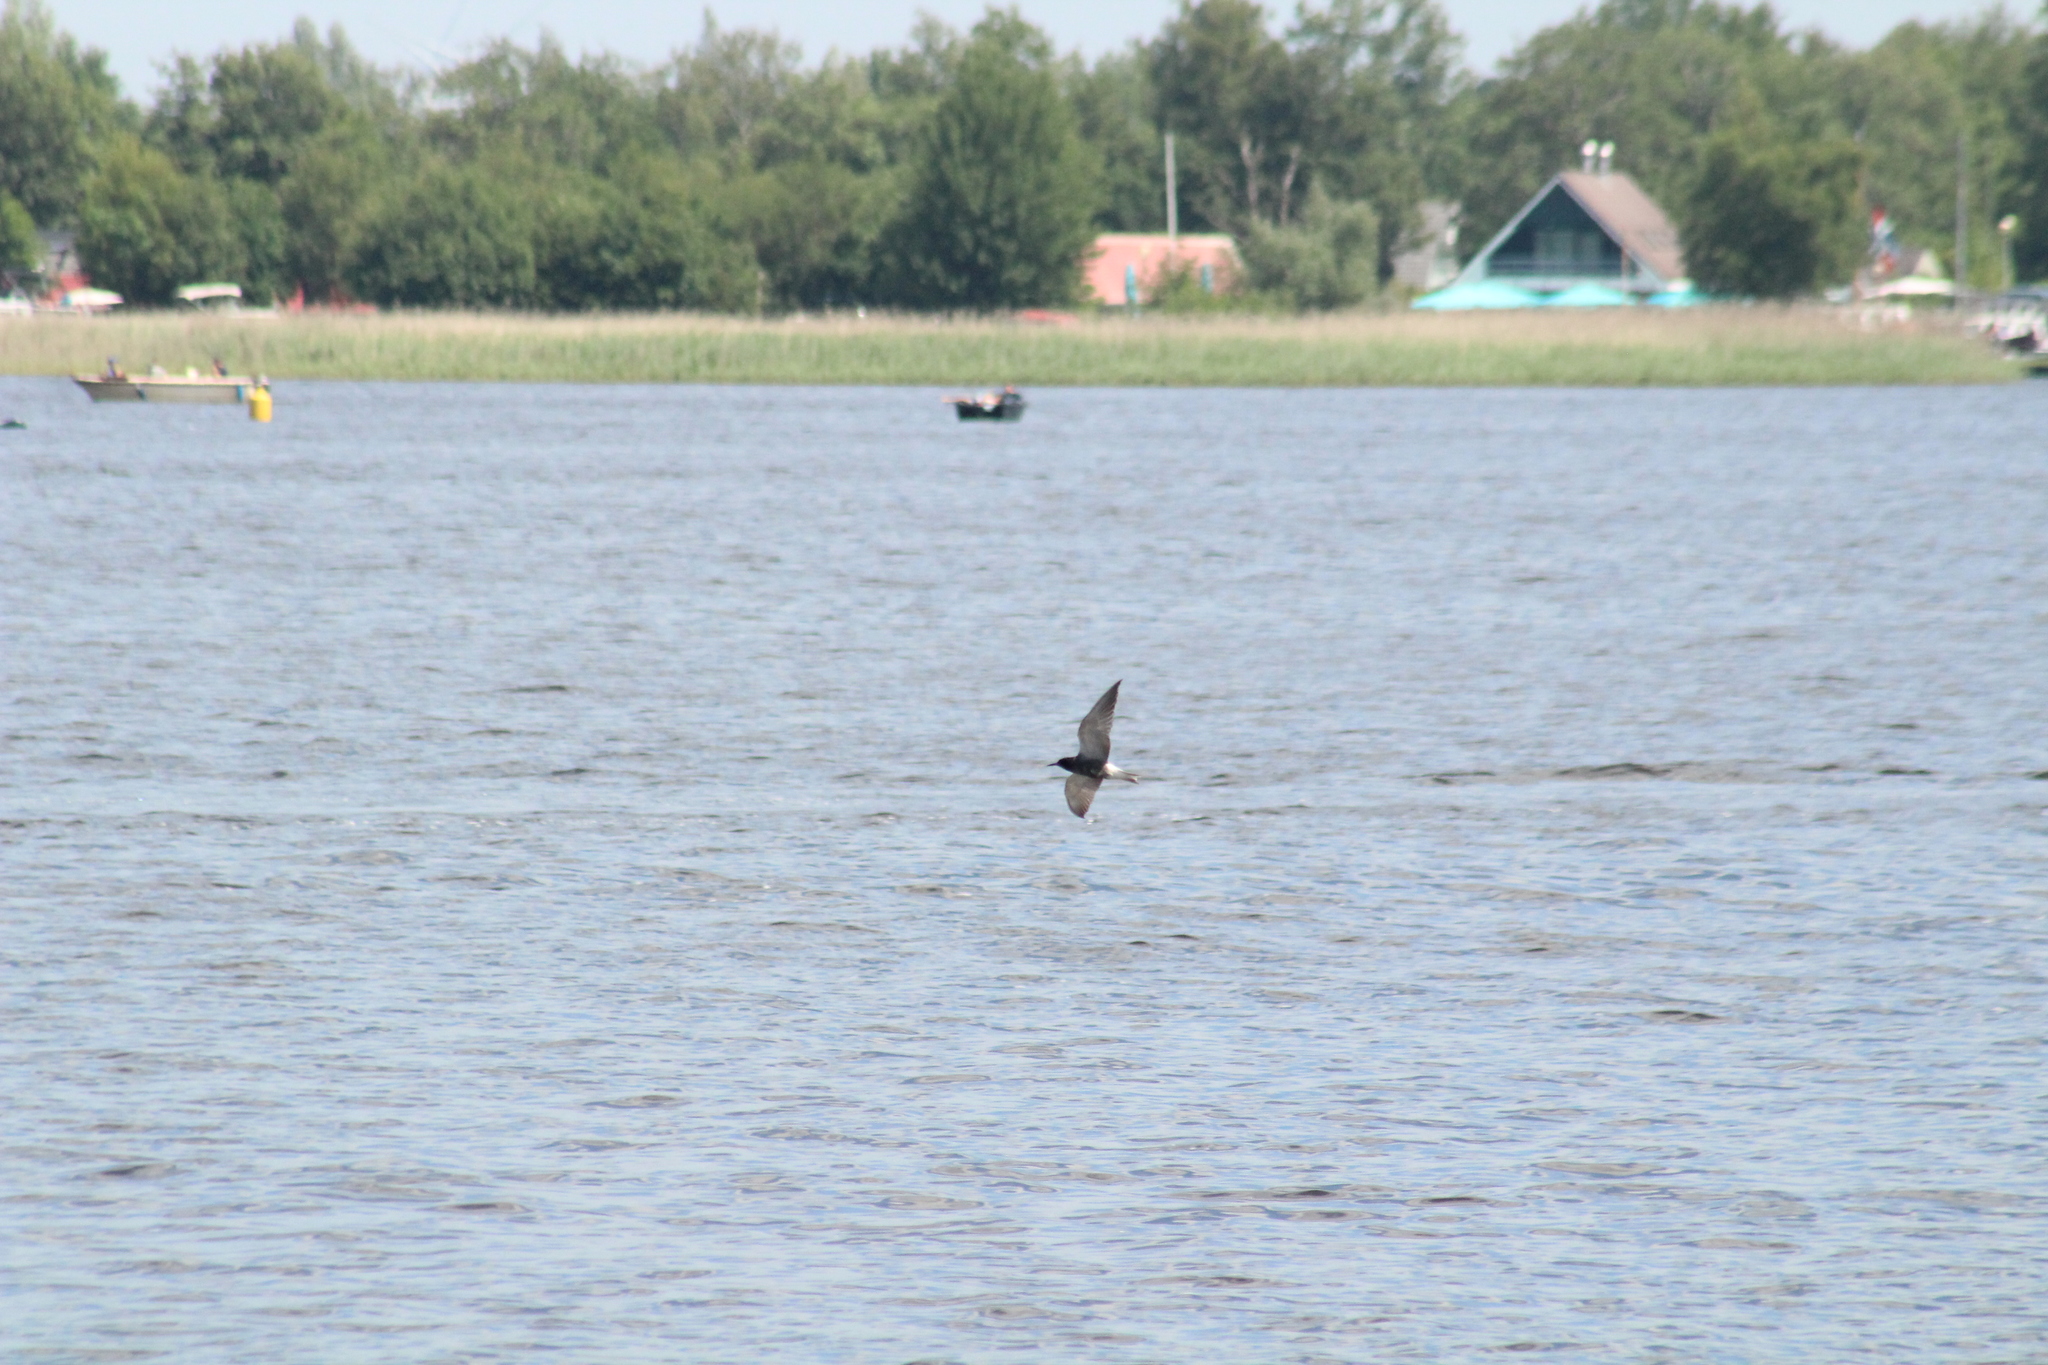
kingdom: Animalia
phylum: Chordata
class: Aves
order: Charadriiformes
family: Laridae
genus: Chlidonias
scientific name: Chlidonias leucopterus
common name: White-winged tern
